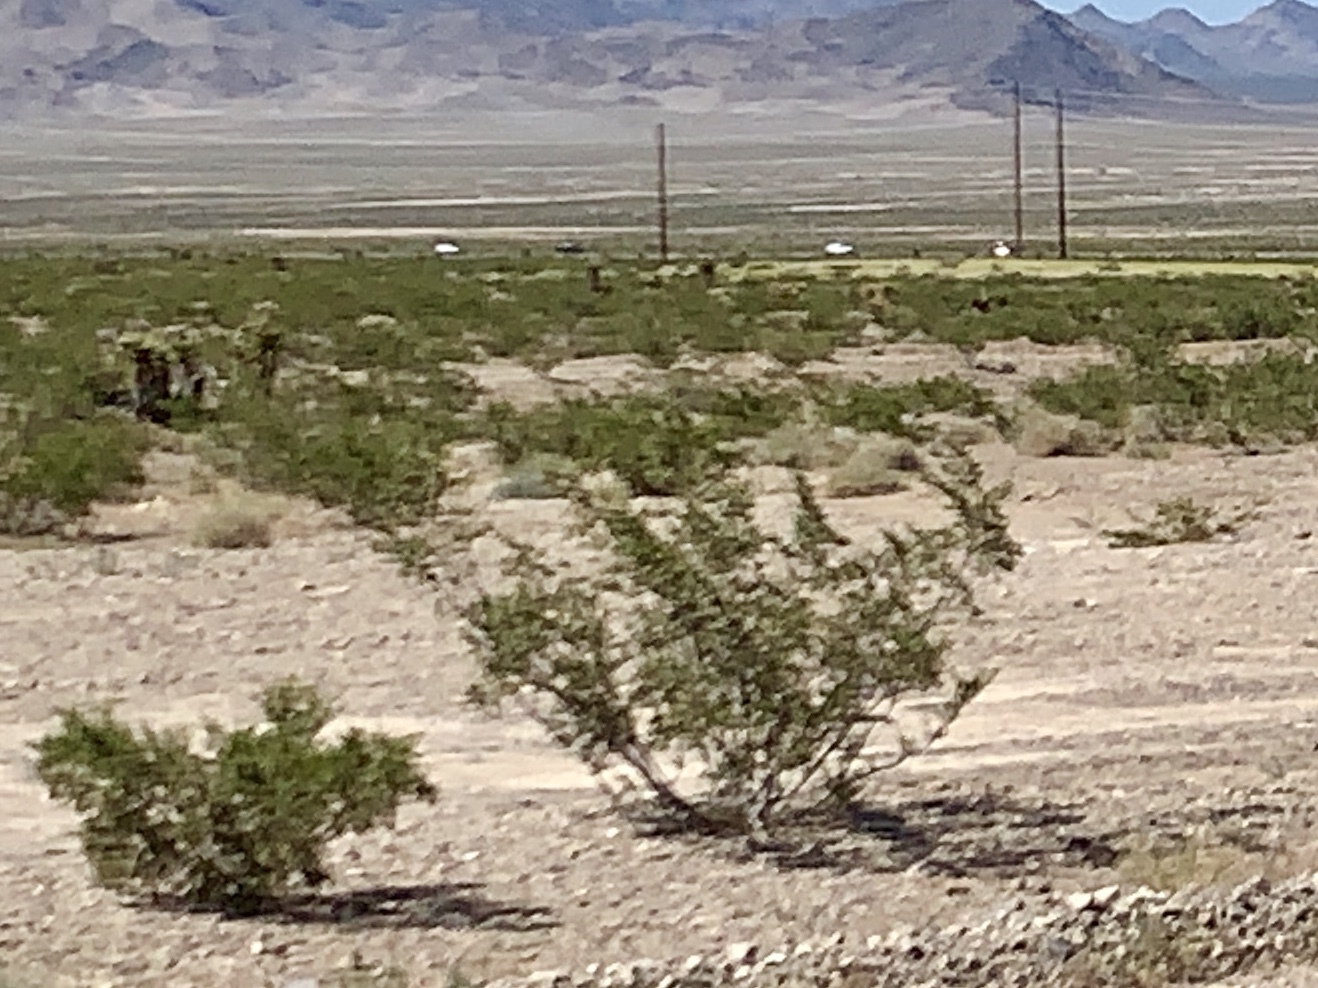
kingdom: Plantae
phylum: Tracheophyta
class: Magnoliopsida
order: Zygophyllales
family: Zygophyllaceae
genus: Larrea
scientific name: Larrea tridentata
